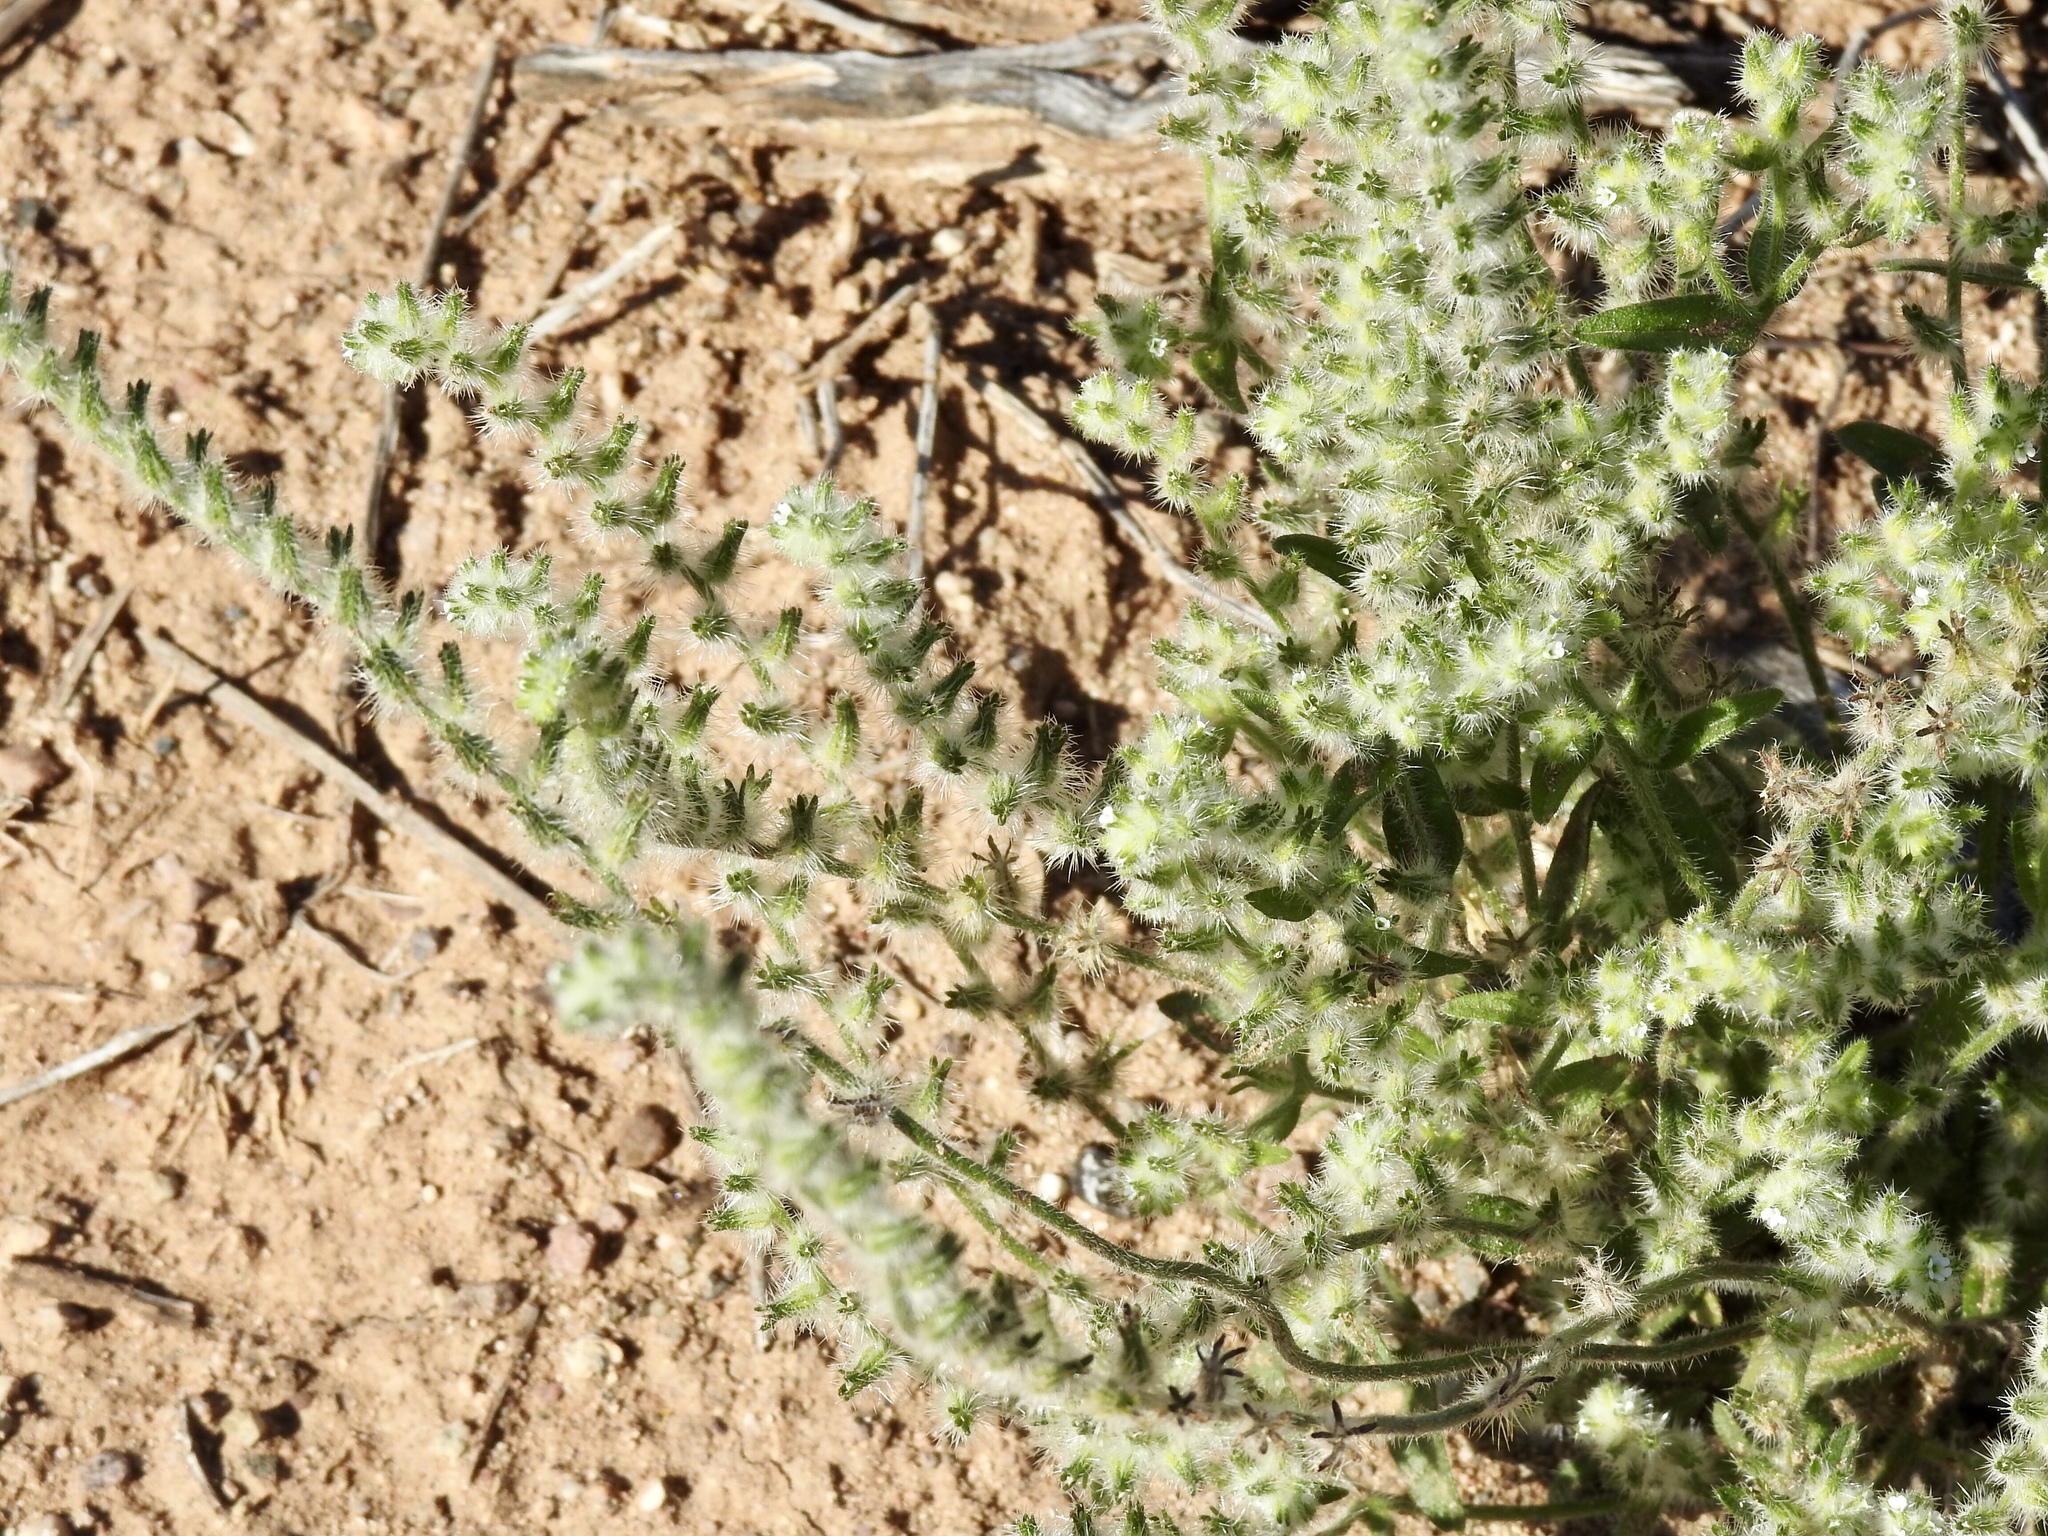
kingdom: Plantae
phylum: Tracheophyta
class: Magnoliopsida
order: Lamiales
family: Plantaginaceae
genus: Plantago
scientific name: Plantago patagonica
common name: Patagonia indian-wheat
